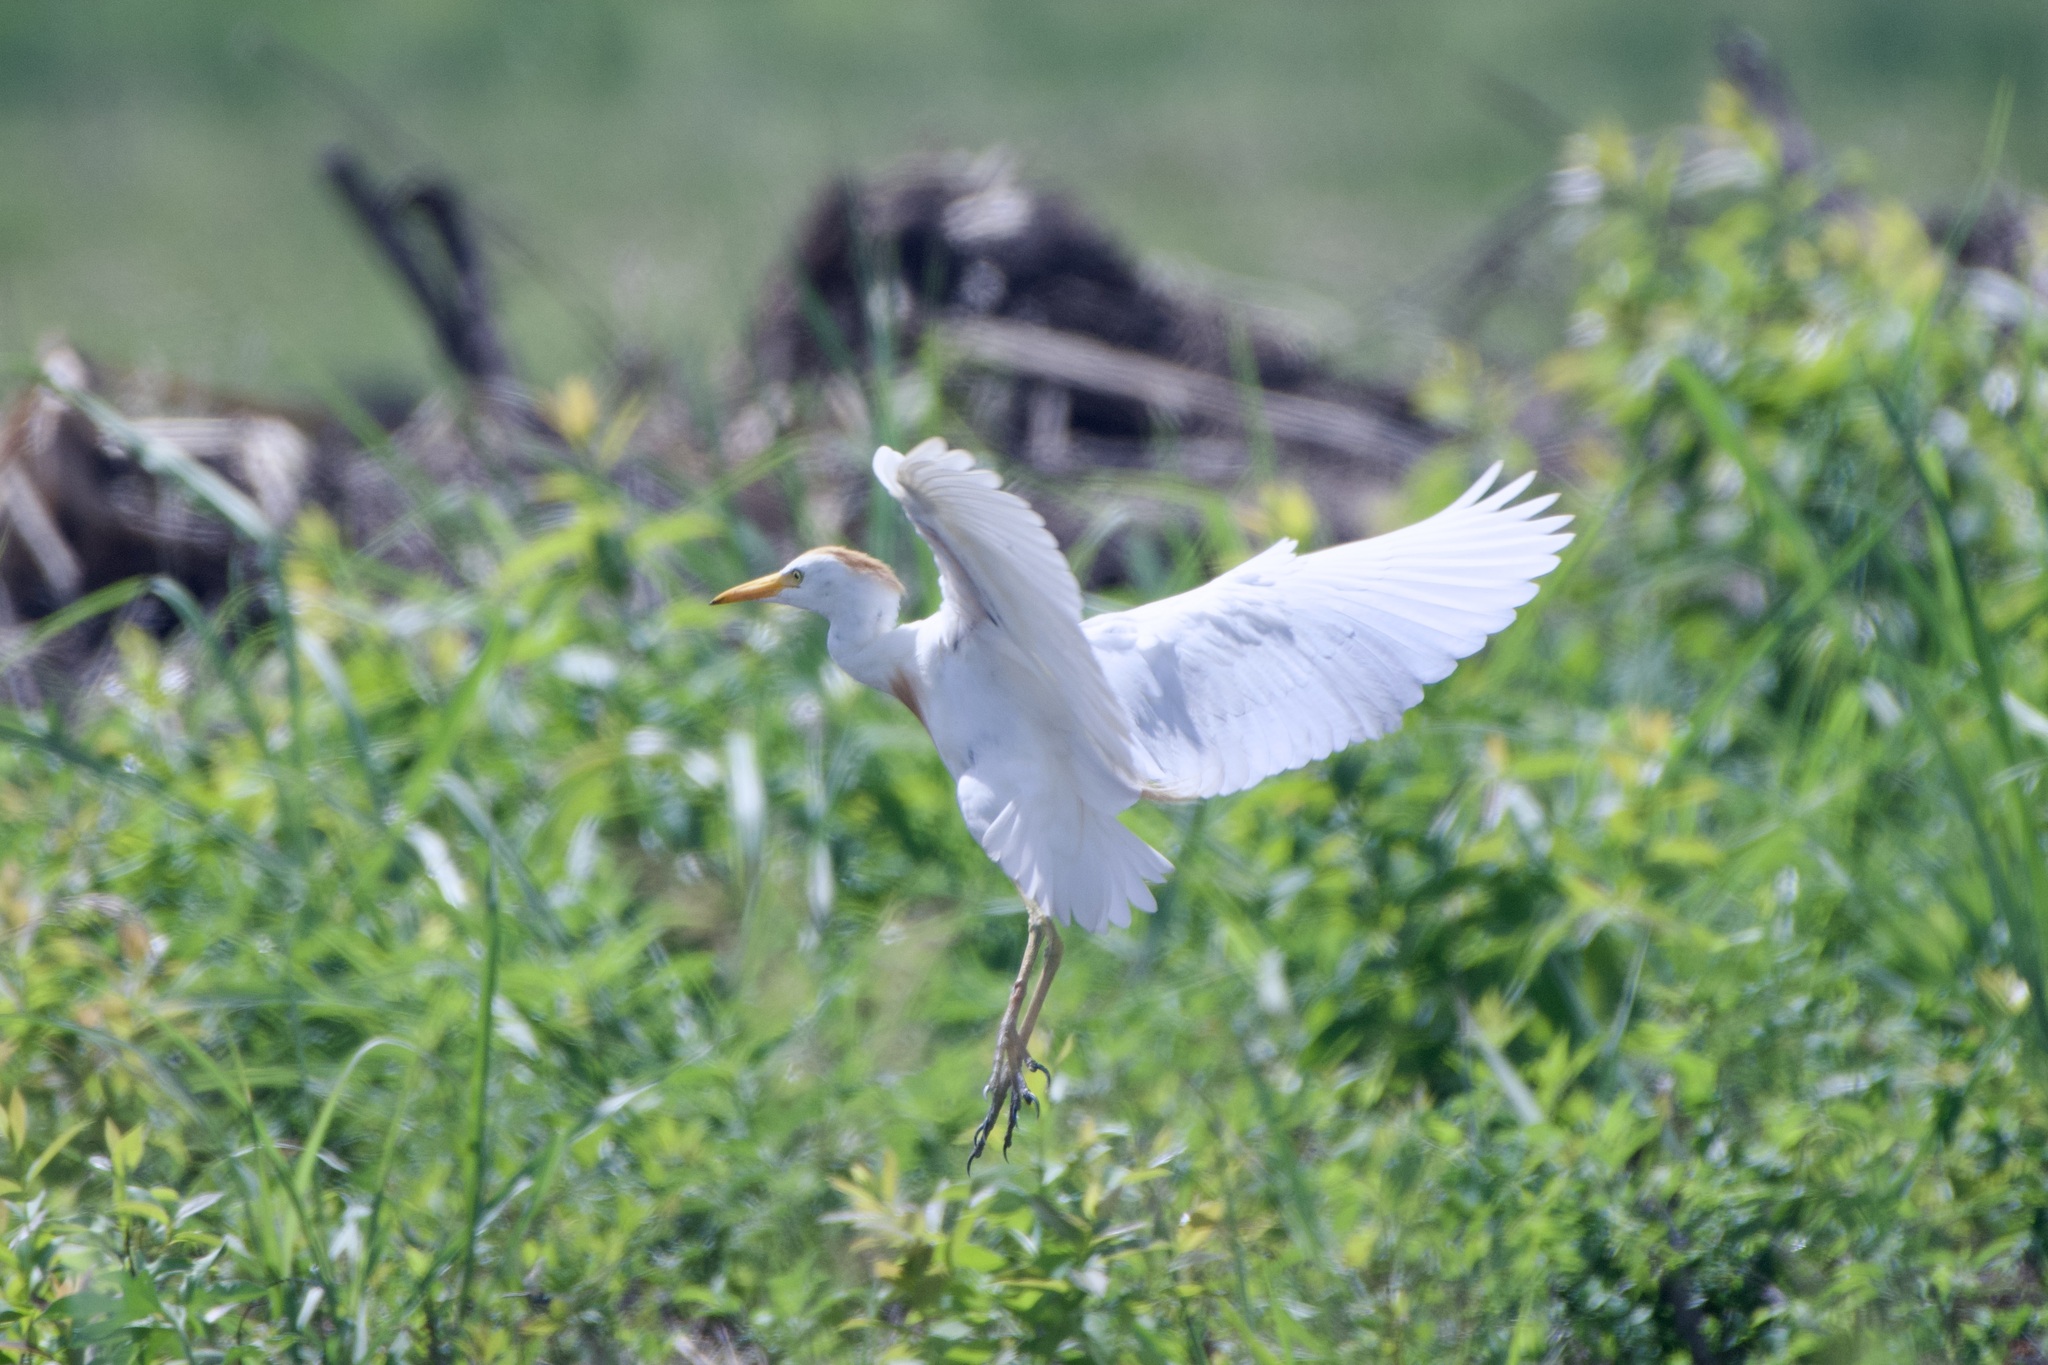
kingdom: Animalia
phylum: Chordata
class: Aves
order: Pelecaniformes
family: Ardeidae
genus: Bubulcus
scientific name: Bubulcus ibis
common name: Cattle egret
